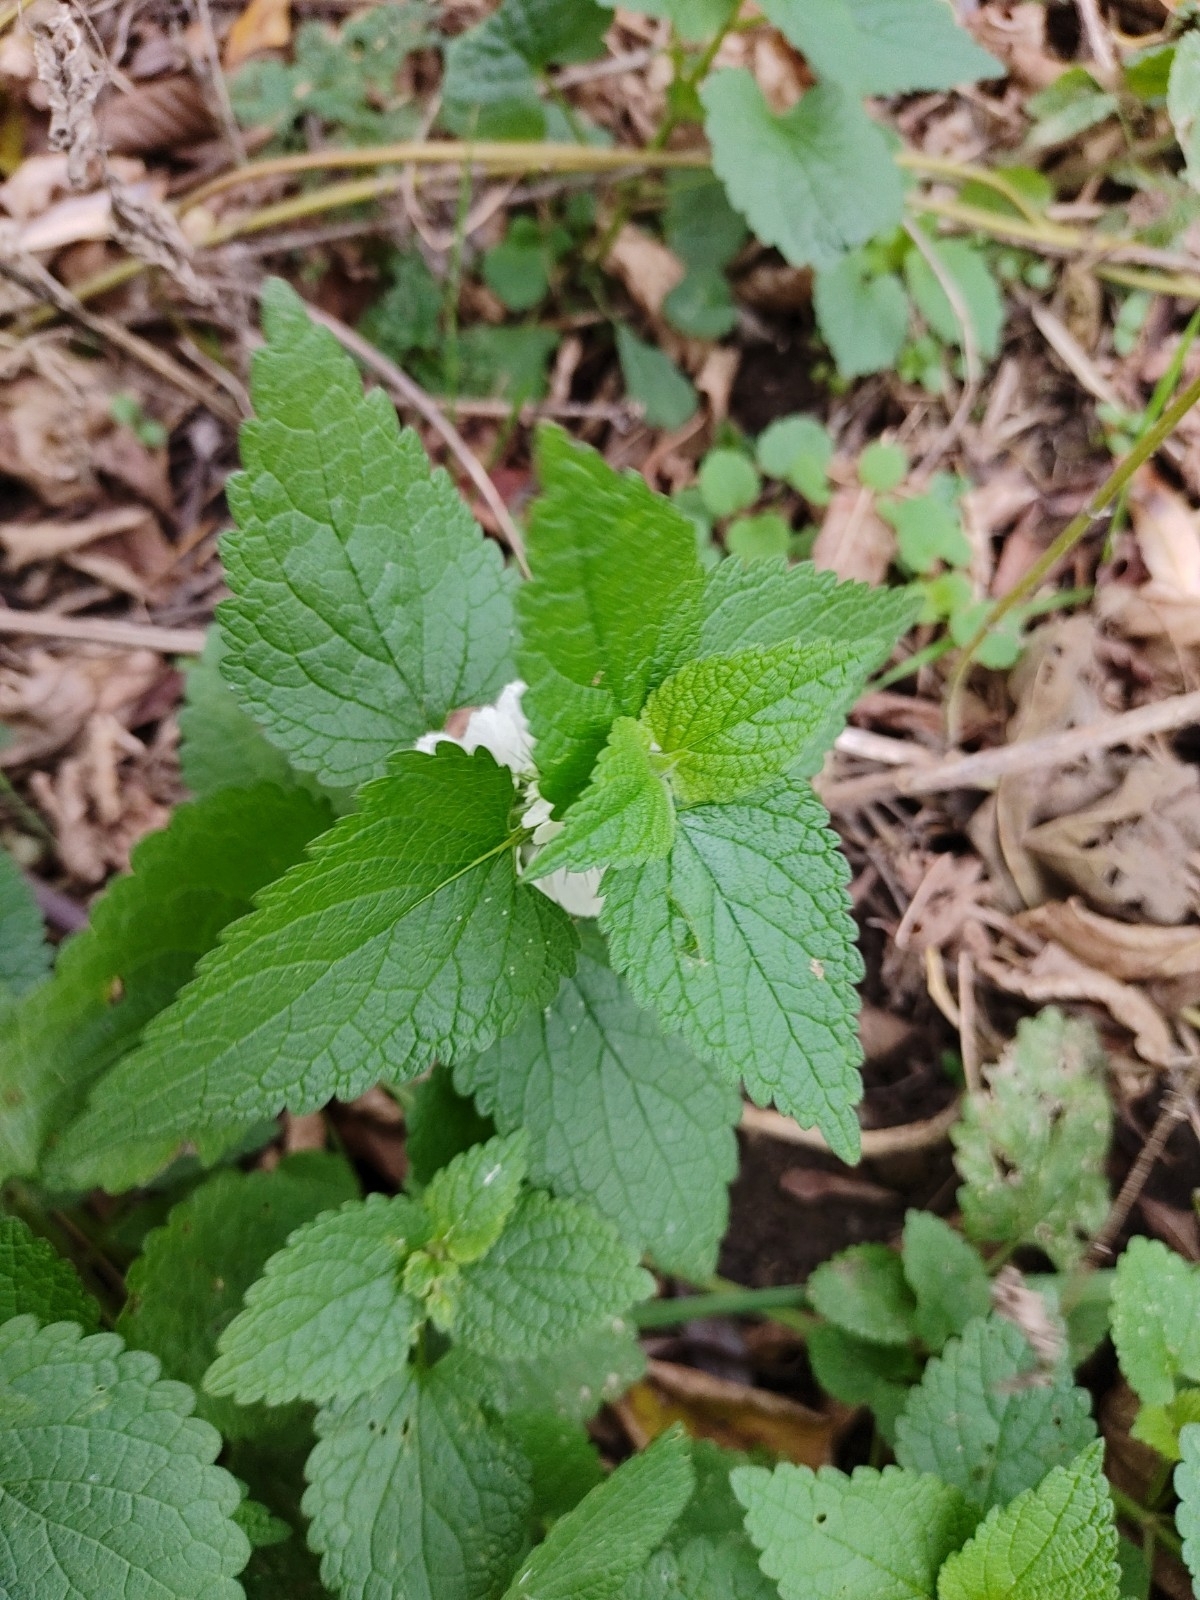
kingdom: Plantae
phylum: Tracheophyta
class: Magnoliopsida
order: Lamiales
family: Lamiaceae
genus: Lamium
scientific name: Lamium album
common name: White dead-nettle
